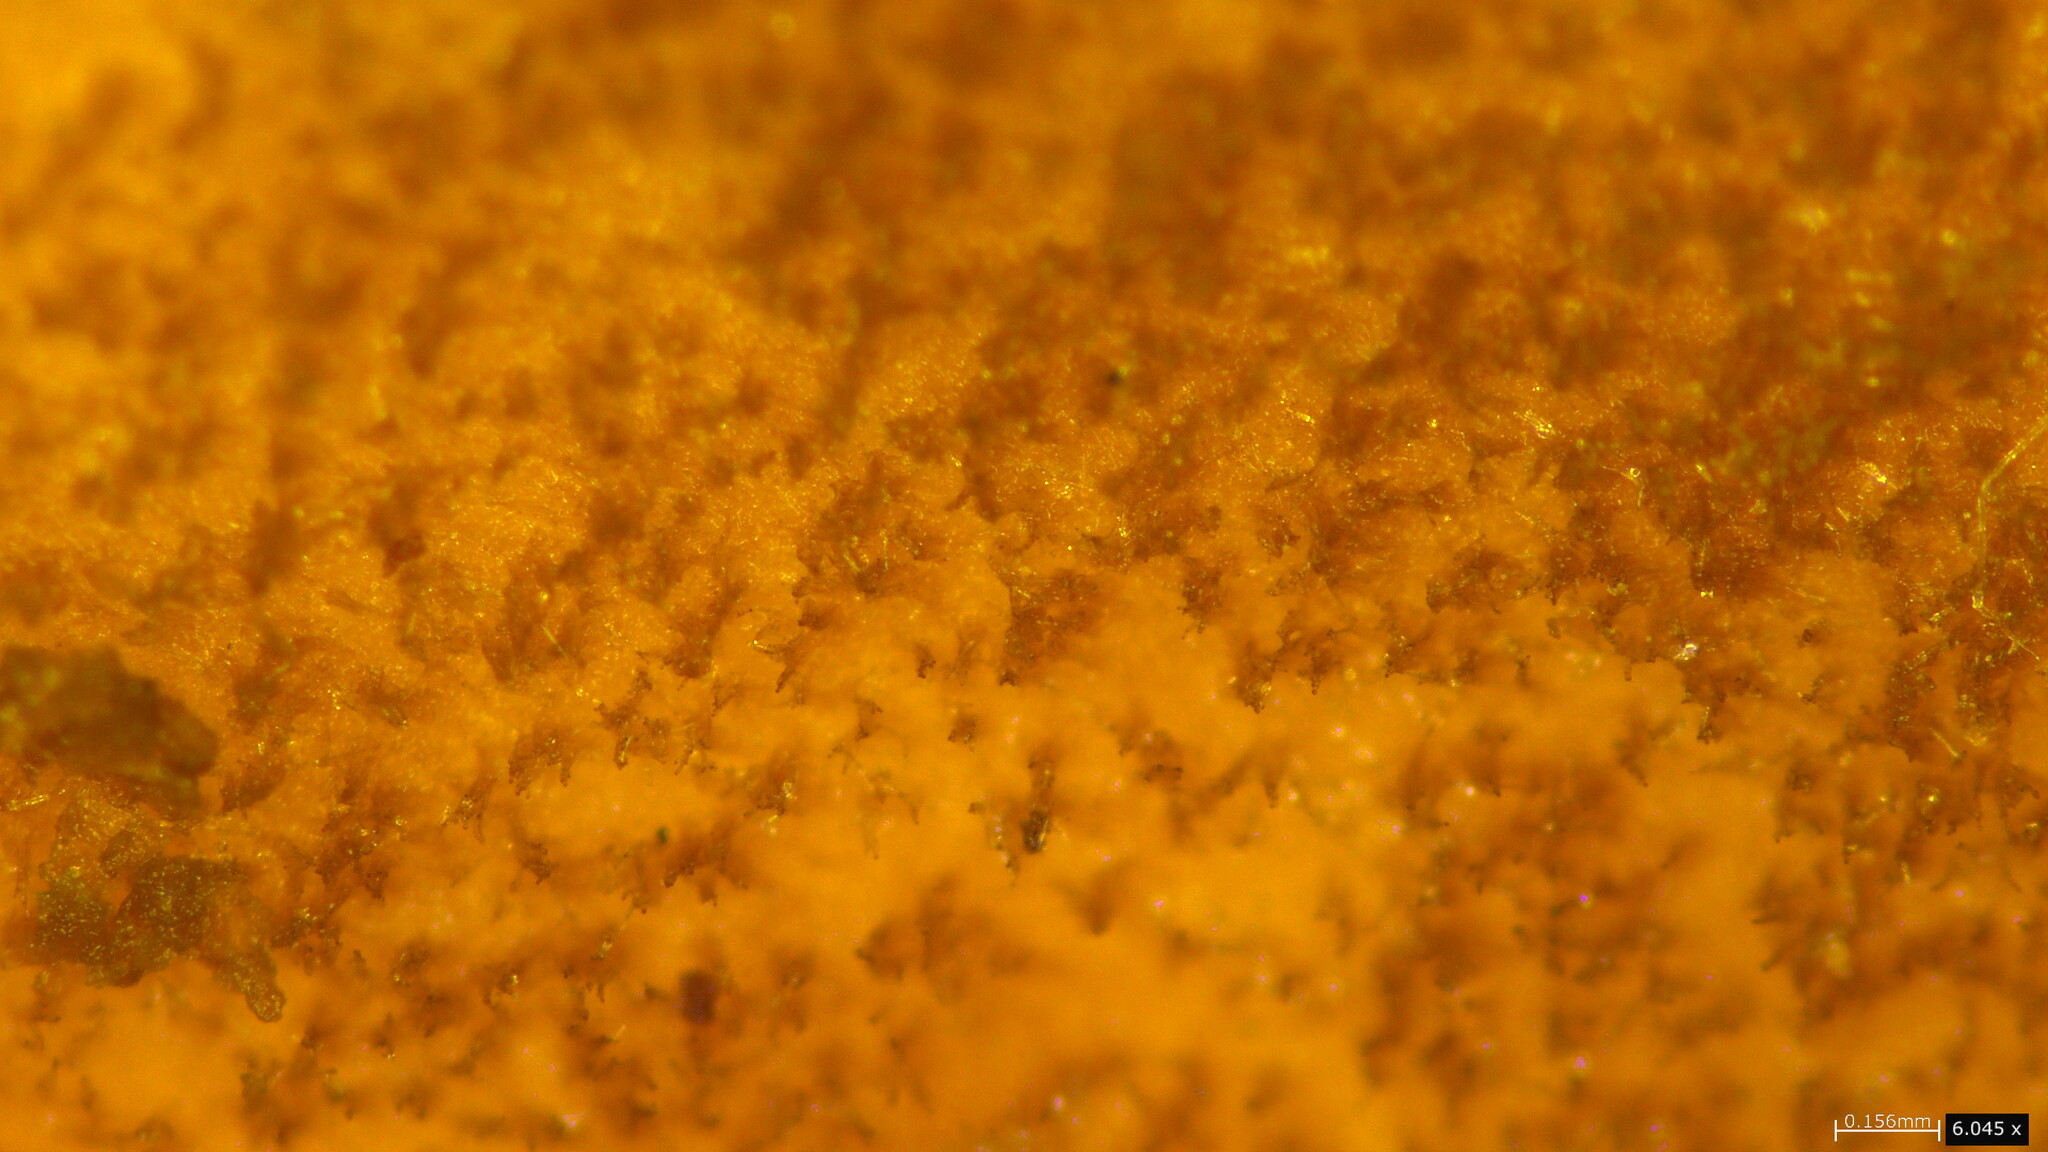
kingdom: Fungi
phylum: Basidiomycota
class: Agaricomycetes
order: Russulales
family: Bondarzewiaceae
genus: Bondarzewia
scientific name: Bondarzewia berkeleyi
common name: Berkeley's polypore
